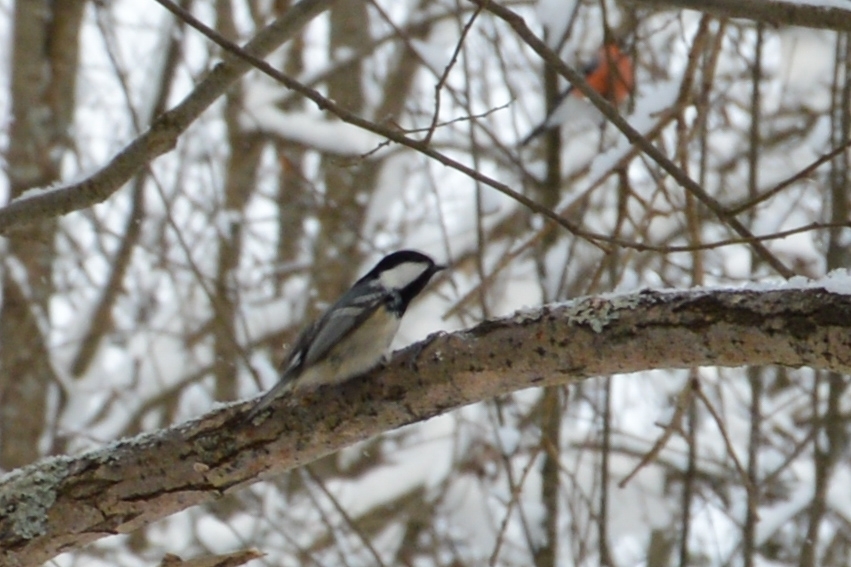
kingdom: Animalia
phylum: Chordata
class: Aves
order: Passeriformes
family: Paridae
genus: Periparus
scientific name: Periparus ater
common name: Coal tit
